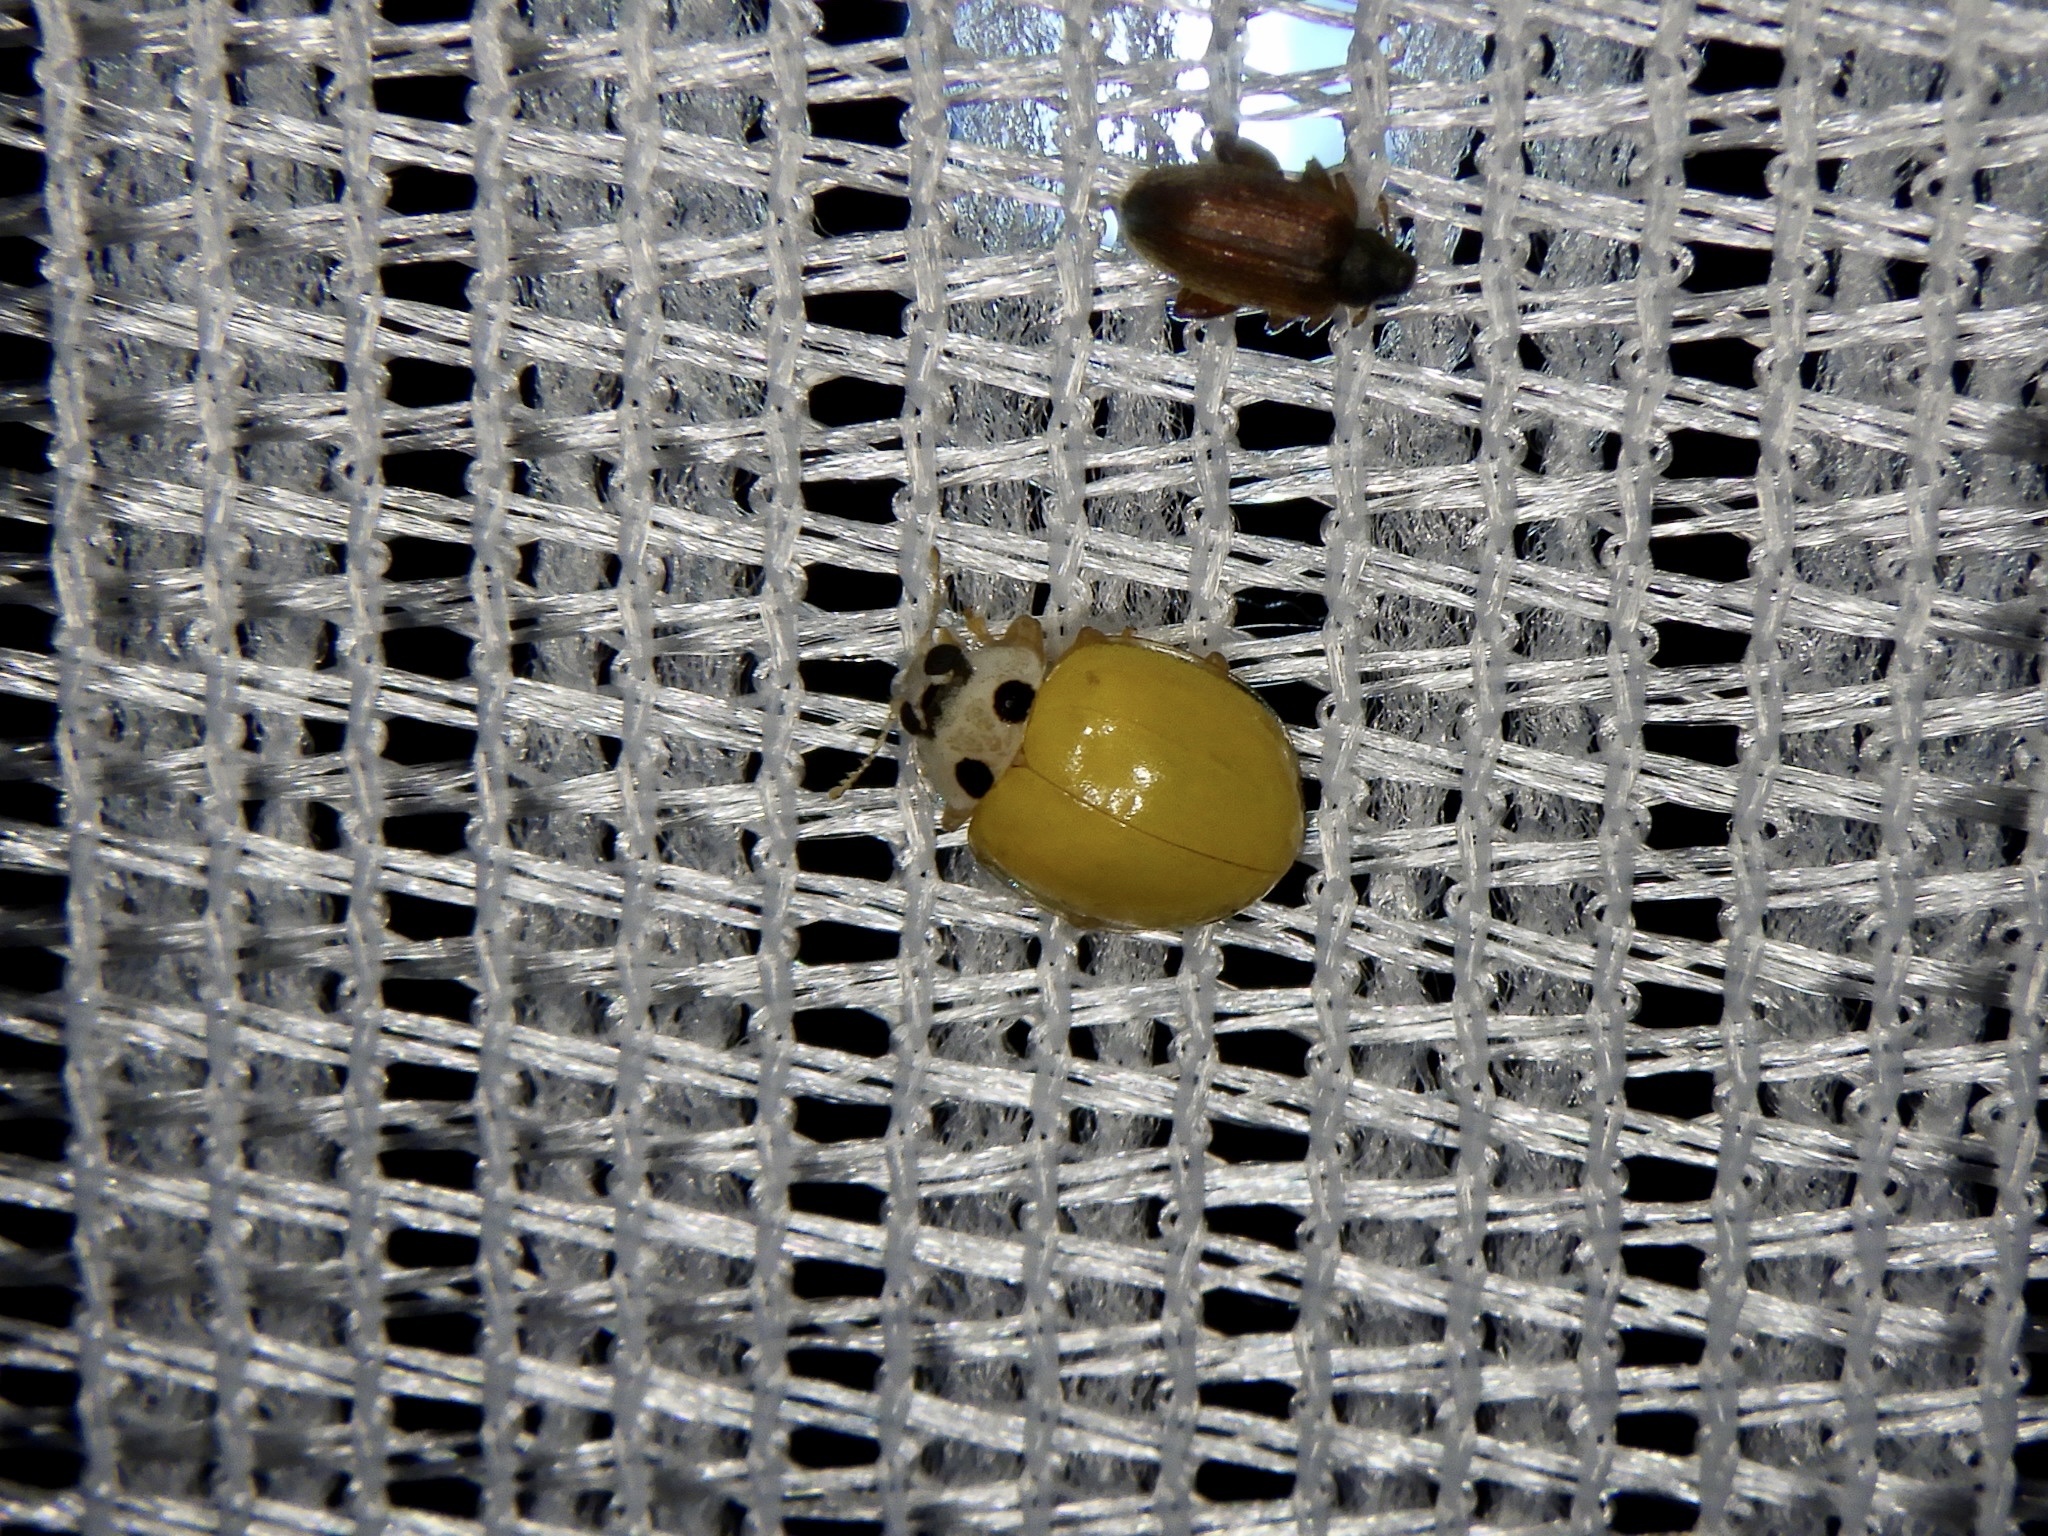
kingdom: Animalia
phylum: Arthropoda
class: Insecta
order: Coleoptera
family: Coccinellidae
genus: Illeis
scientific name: Illeis koebelei
